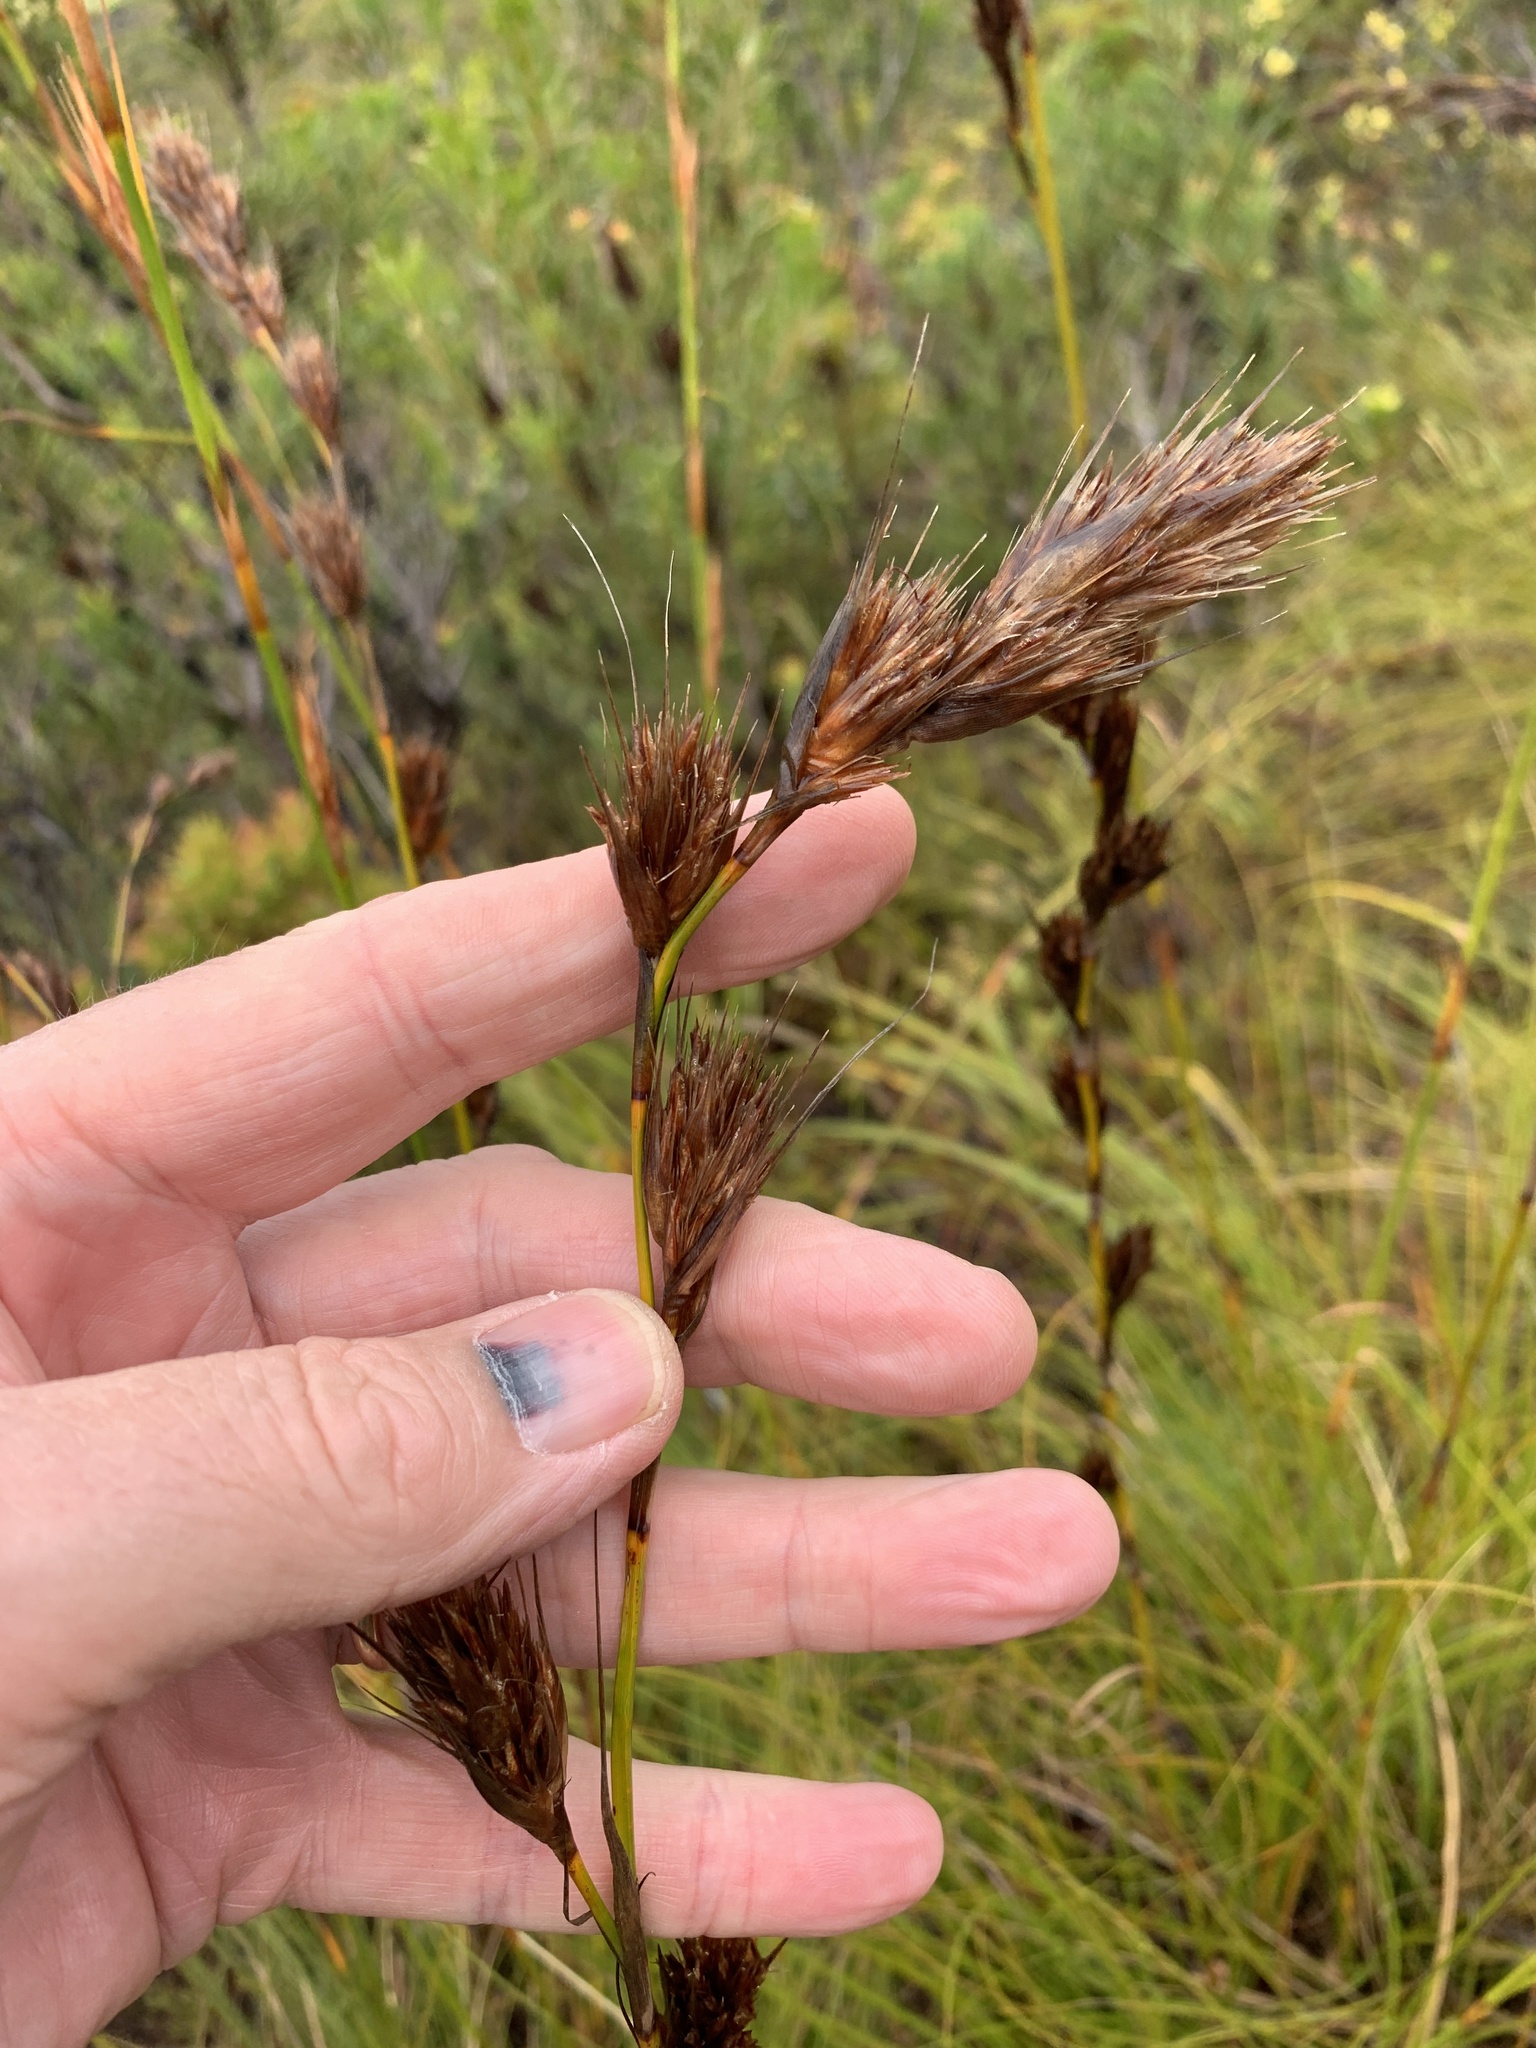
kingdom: Plantae
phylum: Tracheophyta
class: Liliopsida
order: Poales
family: Cyperaceae
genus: Tetraria
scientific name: Tetraria bromoides
